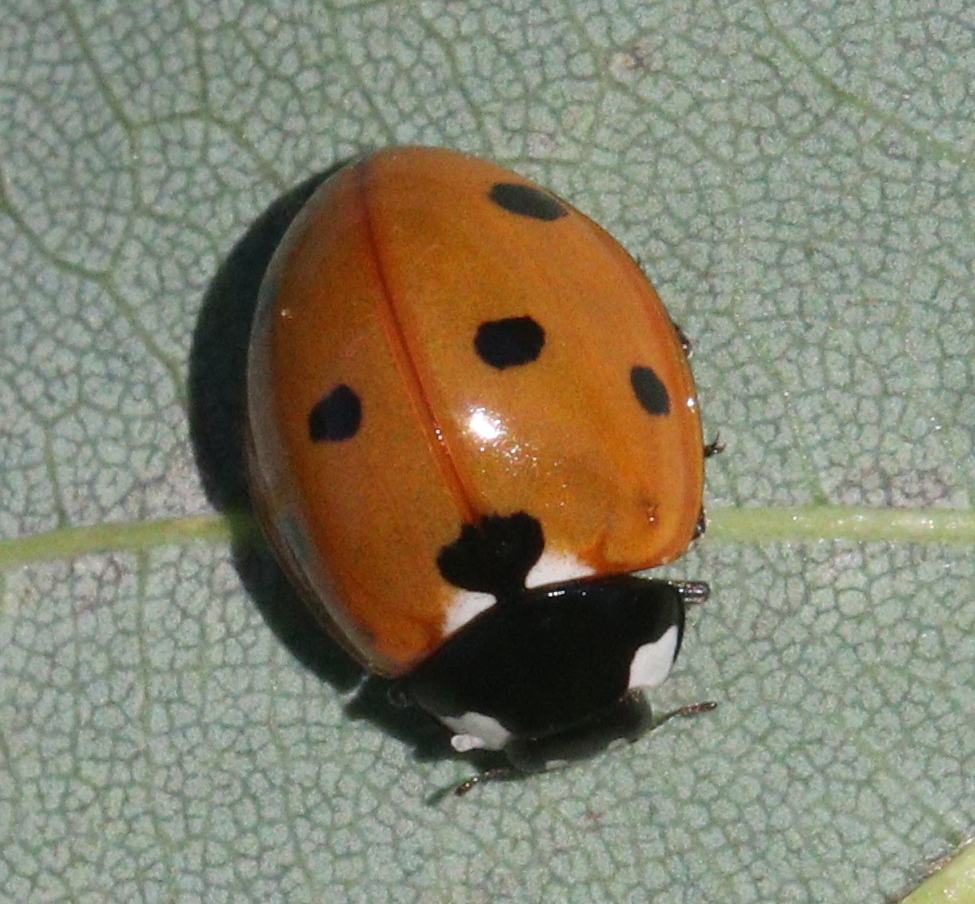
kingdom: Animalia
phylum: Arthropoda
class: Insecta
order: Coleoptera
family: Coccinellidae
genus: Coccinella
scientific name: Coccinella septempunctata
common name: Sevenspotted lady beetle
